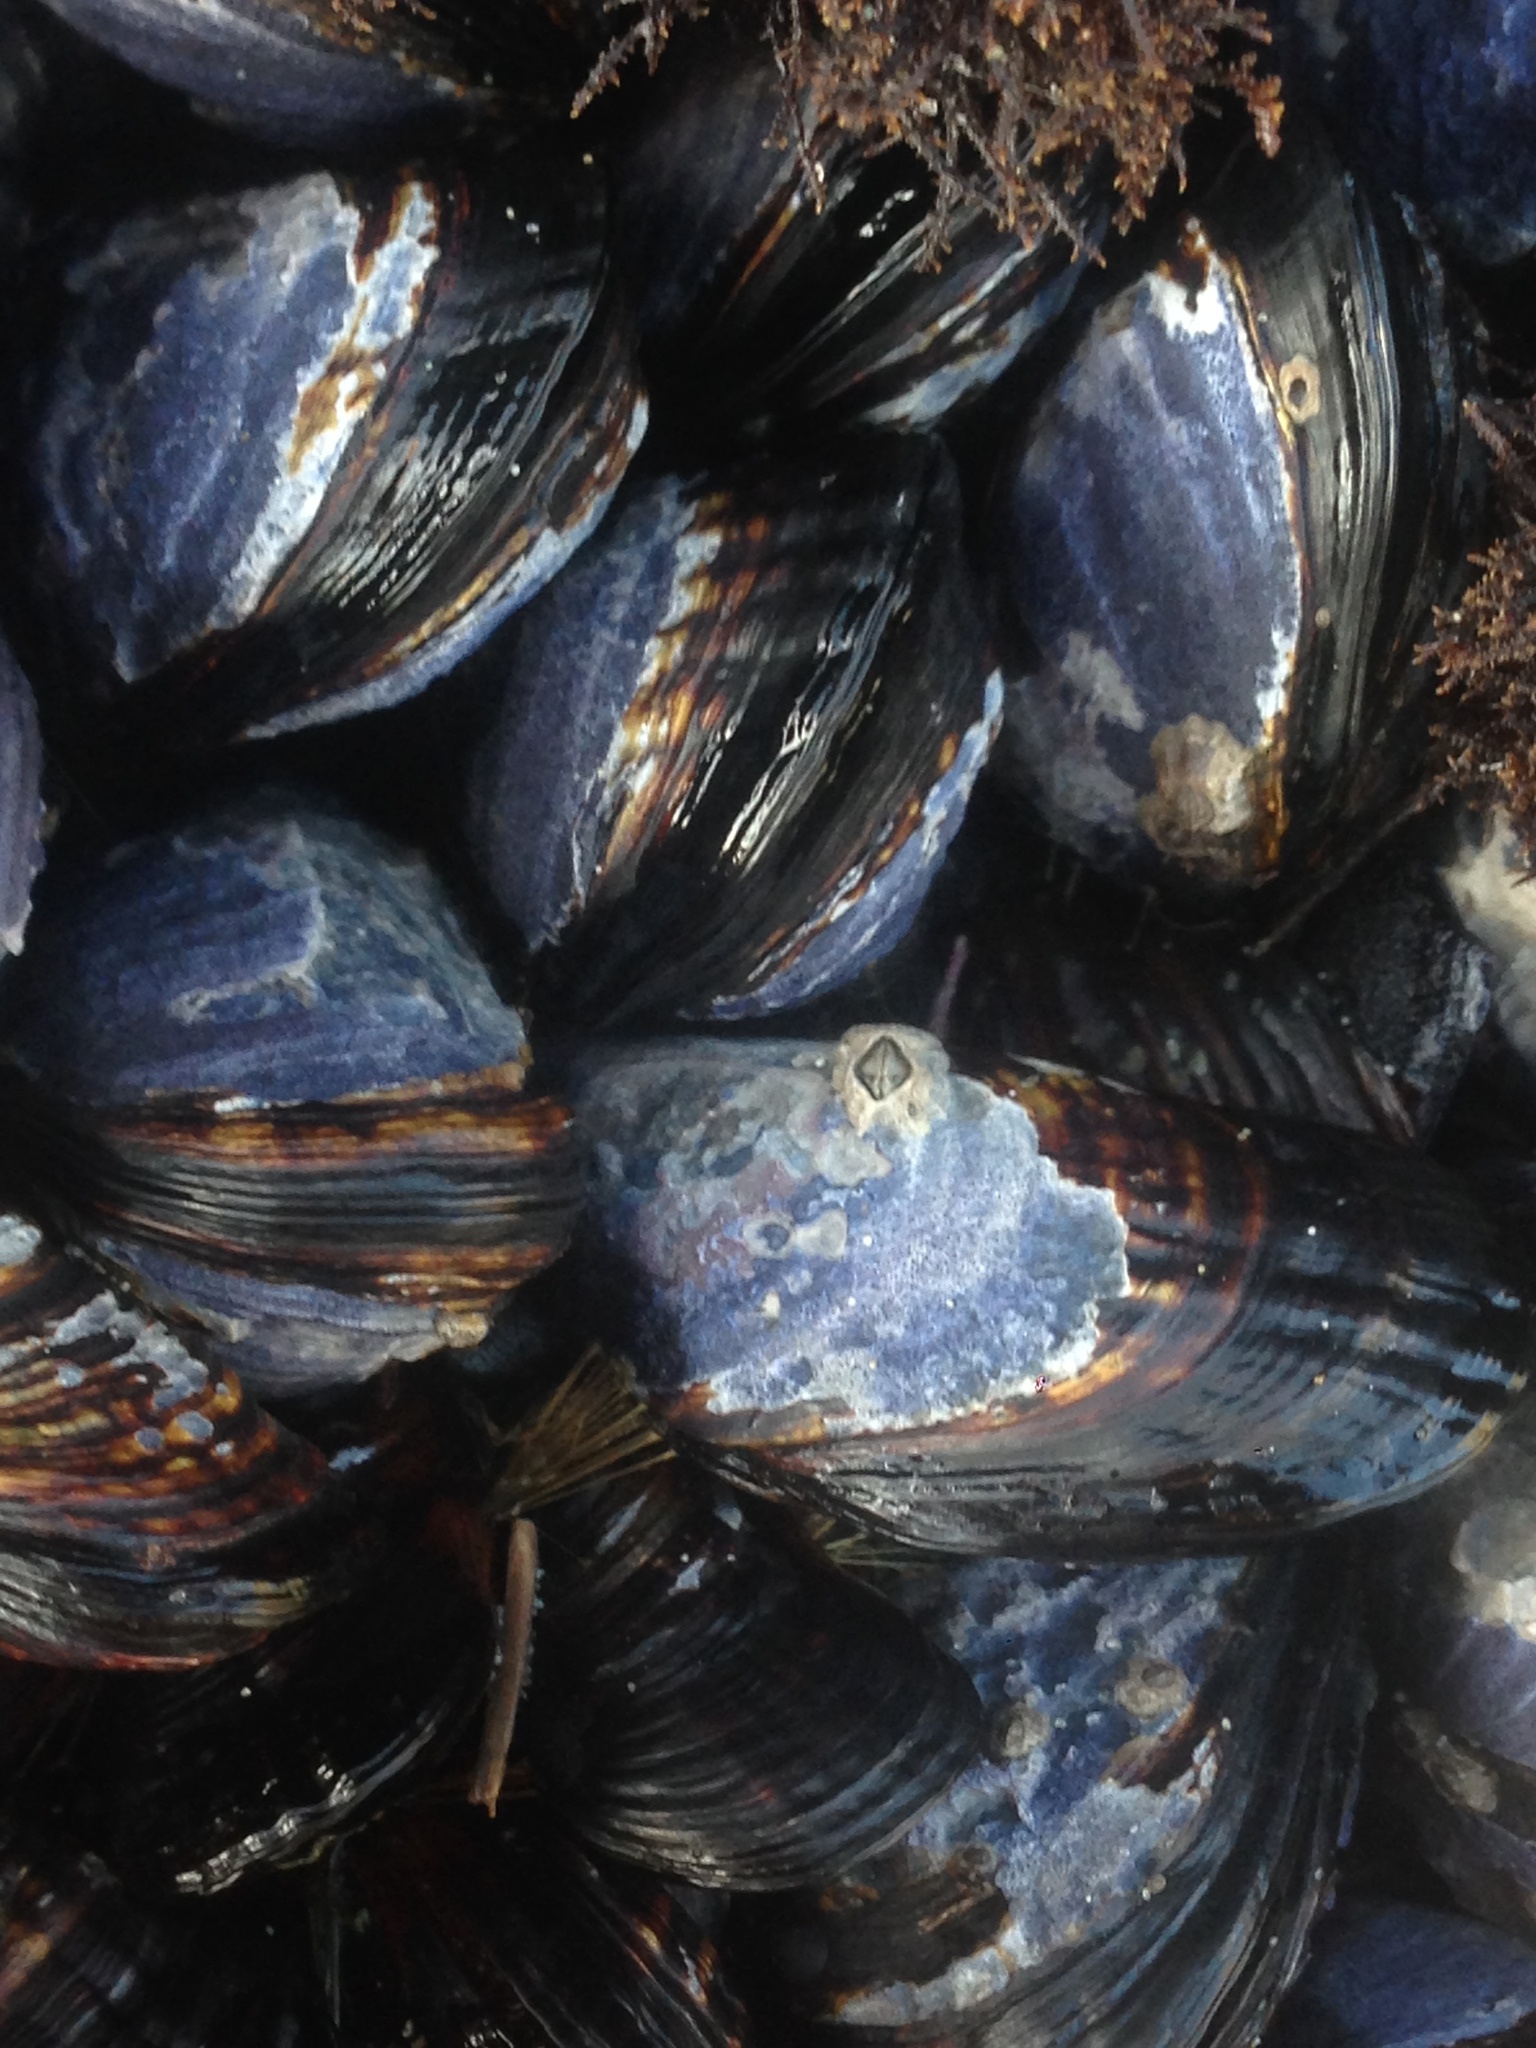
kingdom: Animalia
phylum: Mollusca
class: Bivalvia
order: Mytilida
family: Mytilidae
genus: Mytilus
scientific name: Mytilus californianus
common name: California mussel
